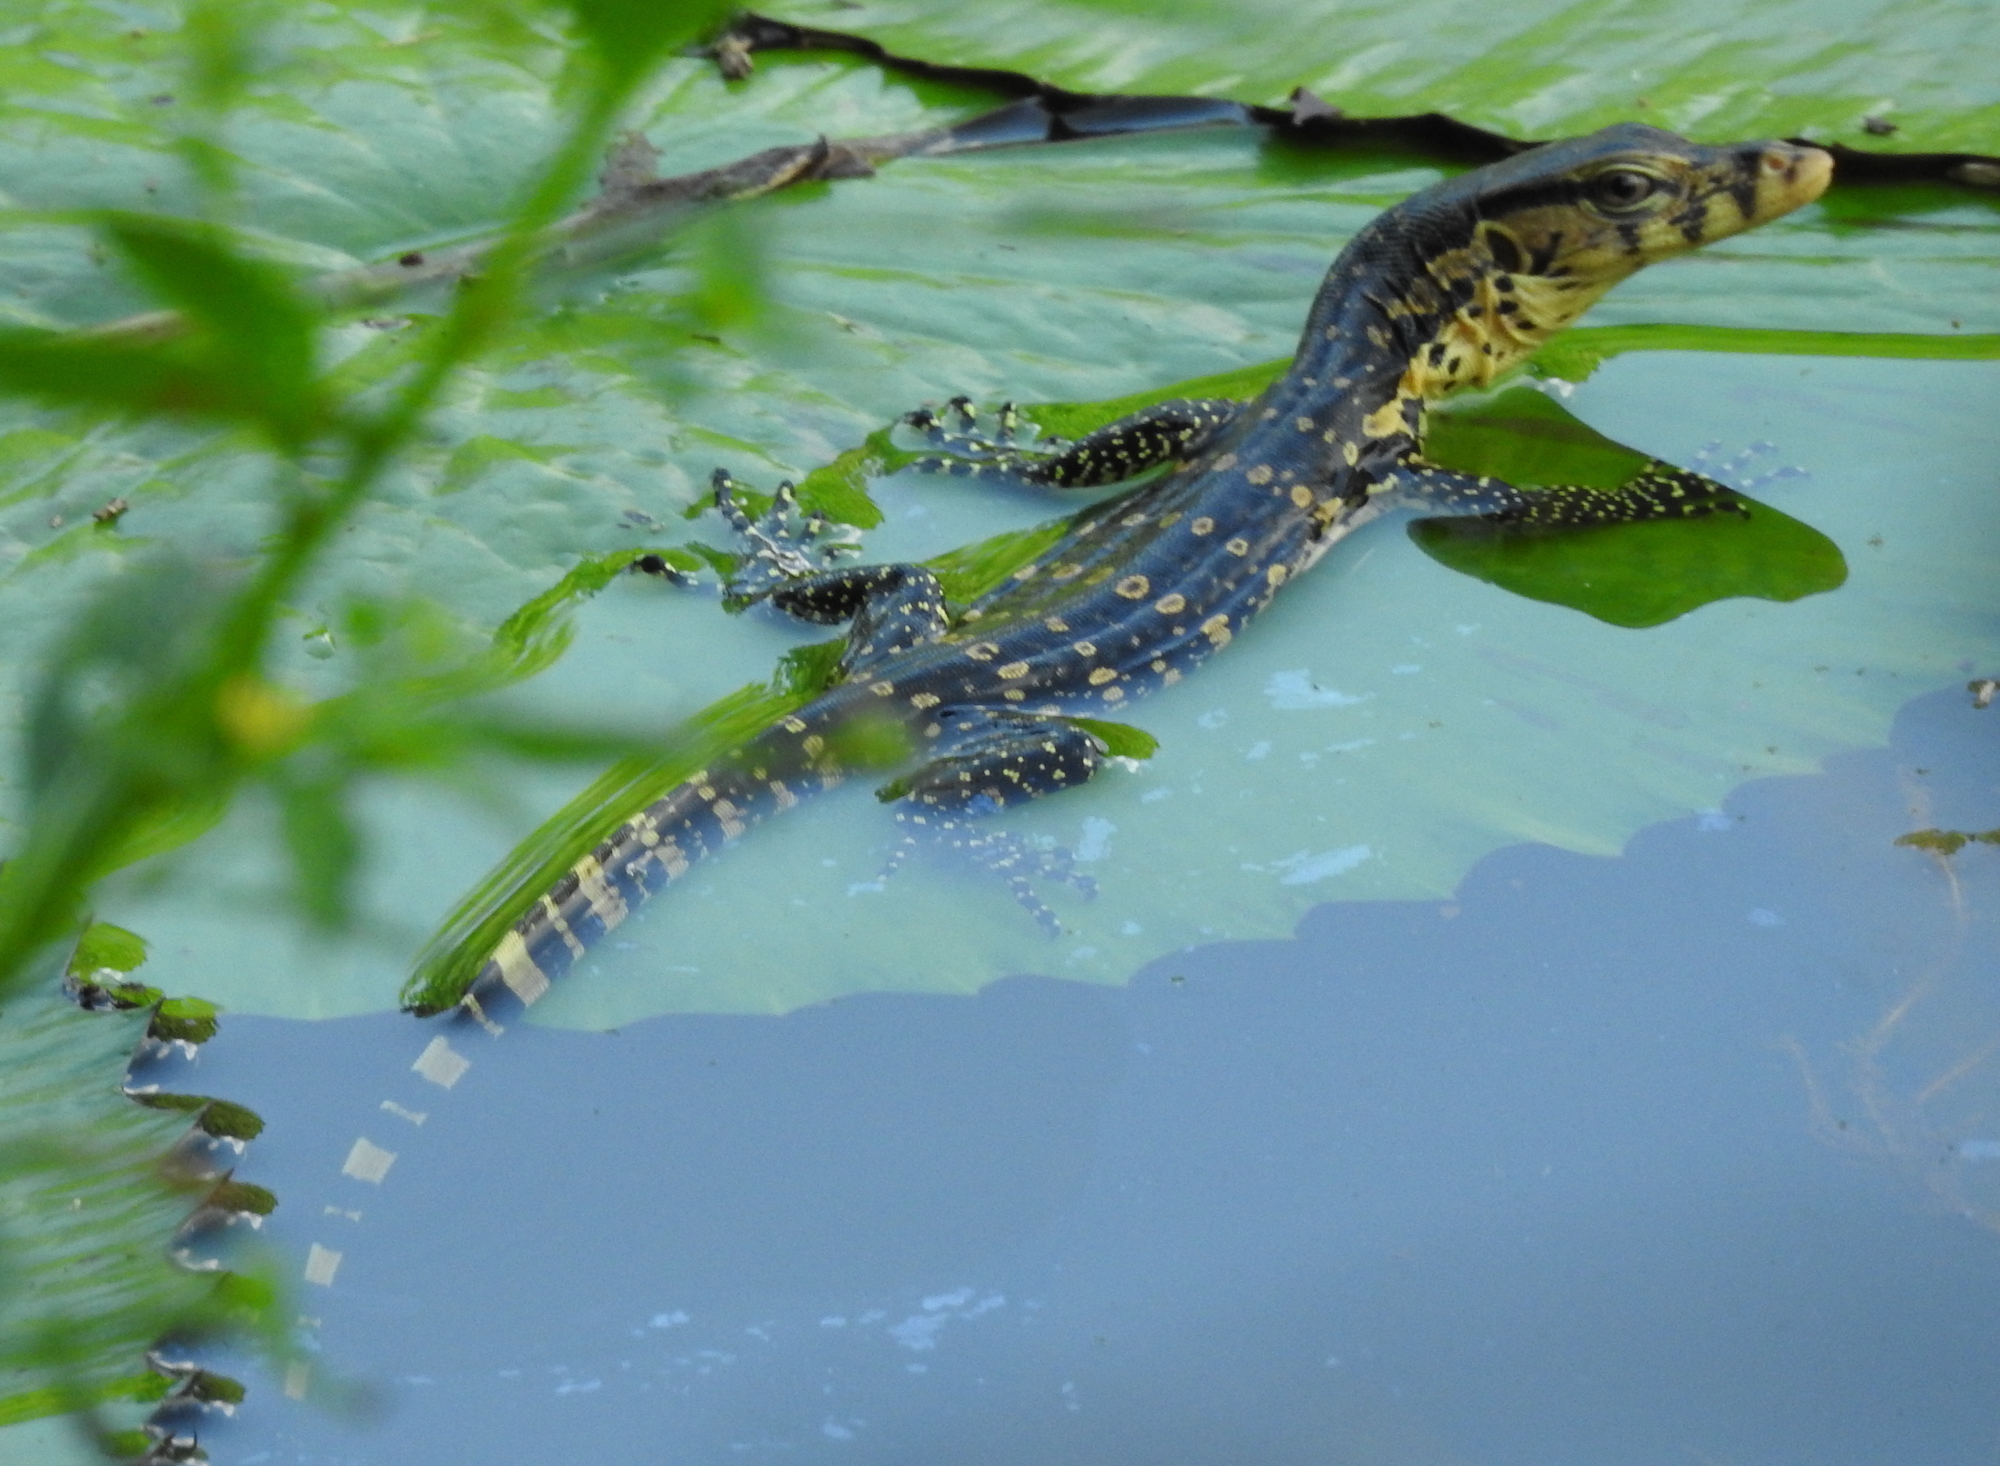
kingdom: Animalia
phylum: Chordata
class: Squamata
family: Varanidae
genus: Varanus
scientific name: Varanus salvator
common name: Common water monitor
